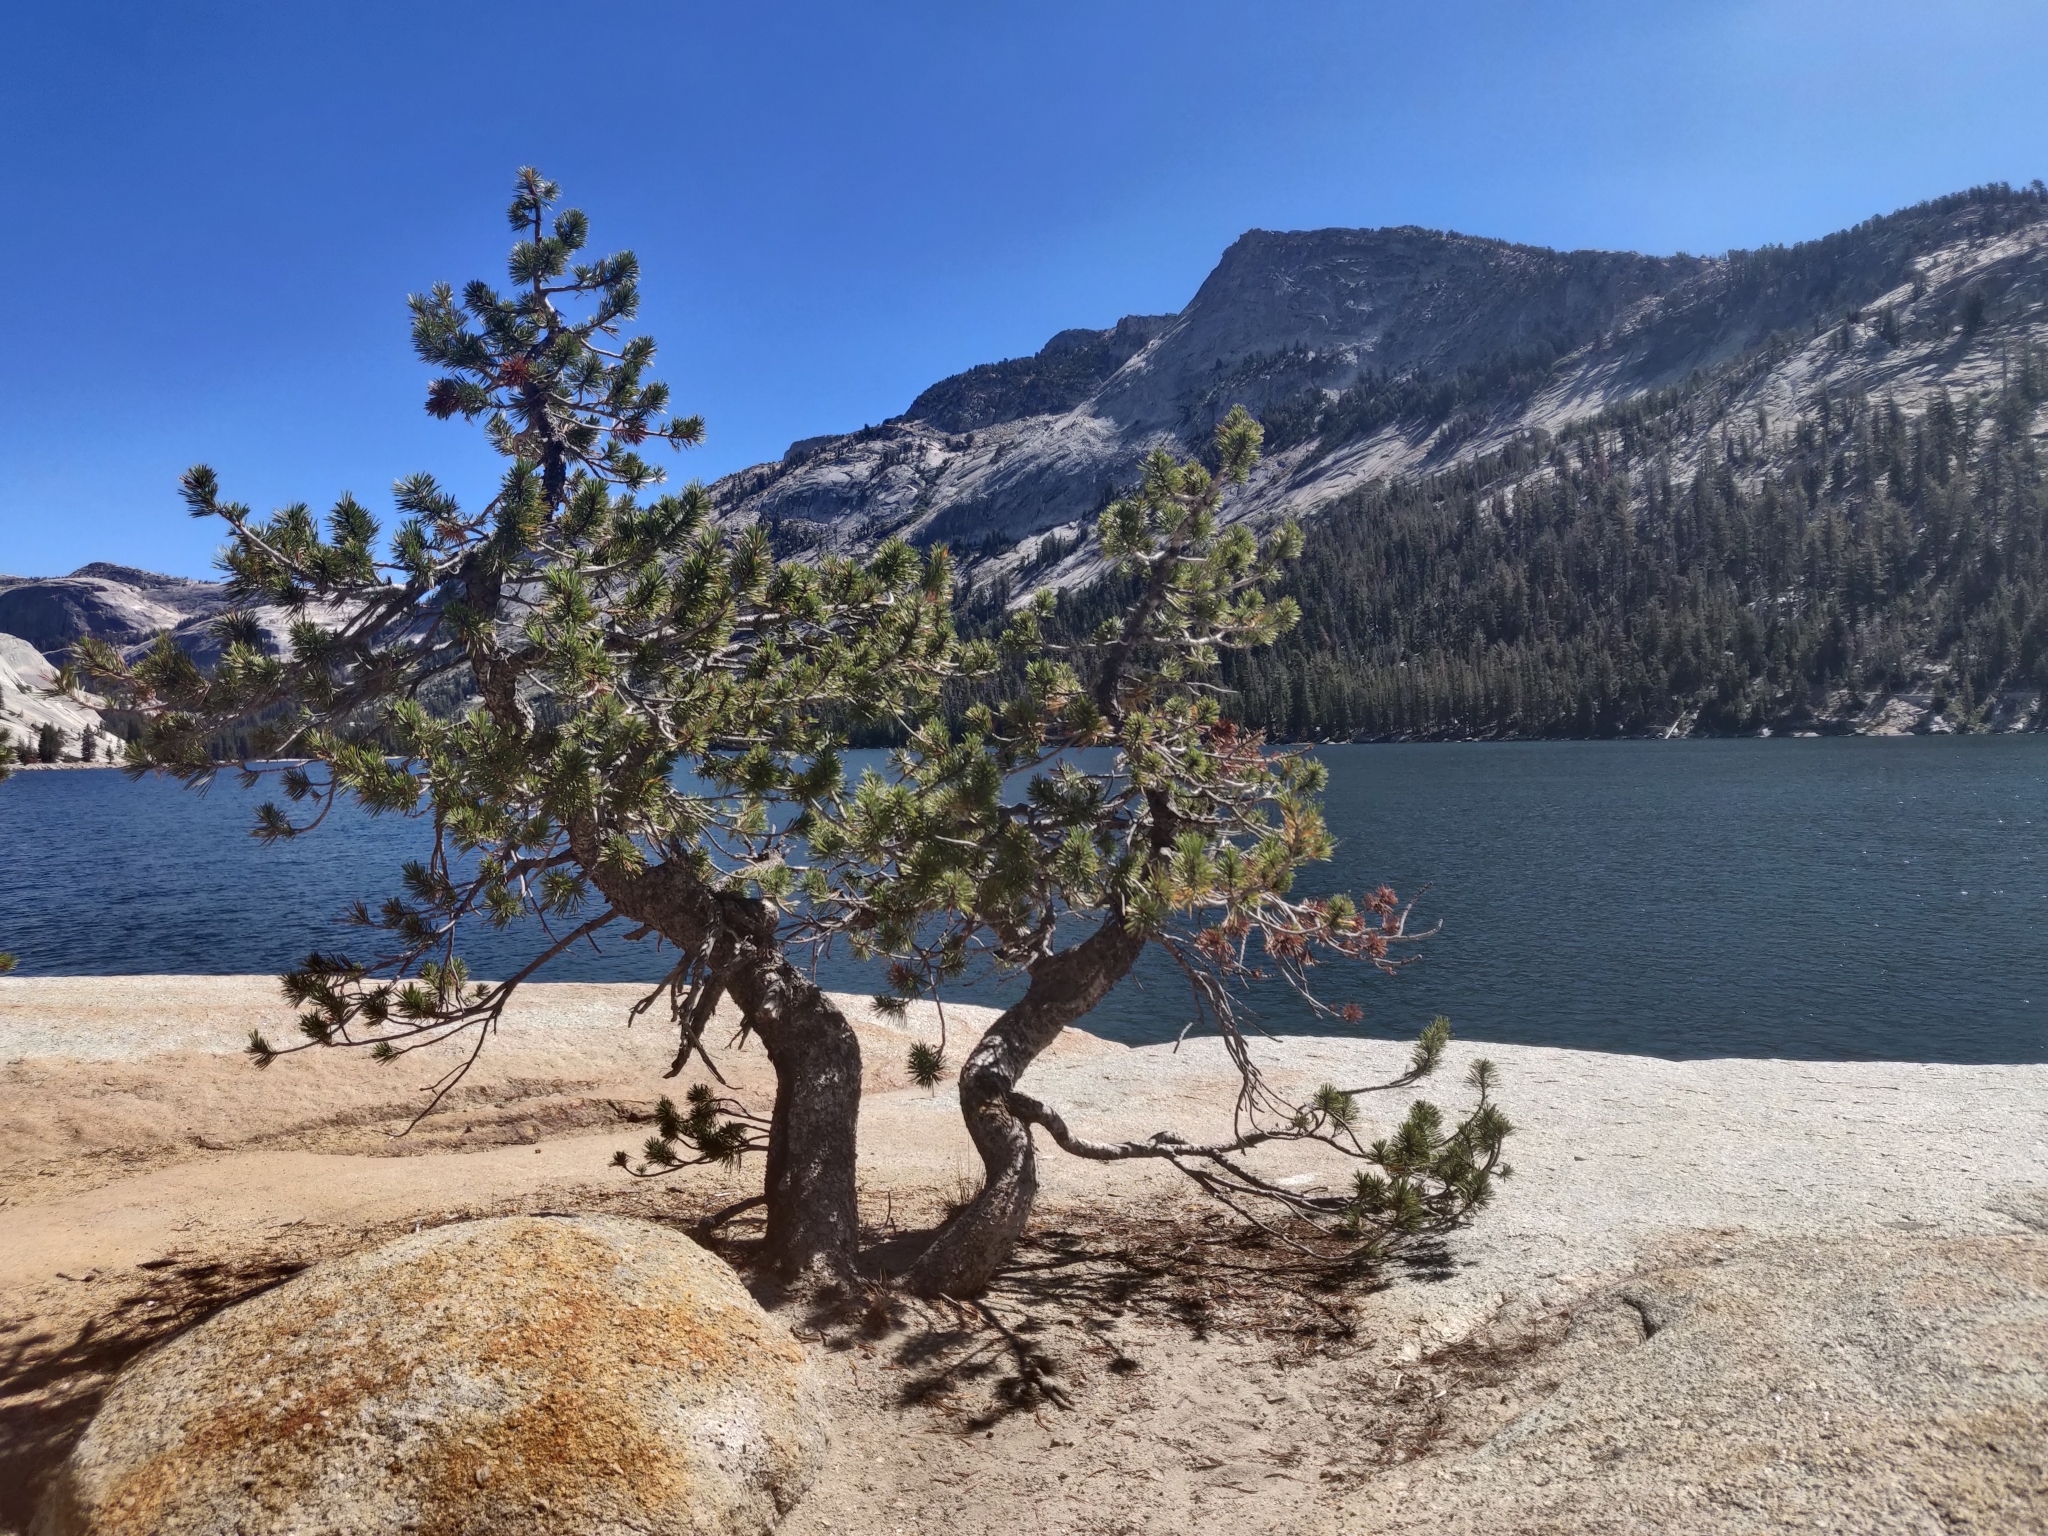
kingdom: Plantae
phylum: Tracheophyta
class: Pinopsida
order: Pinales
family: Pinaceae
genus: Pinus
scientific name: Pinus contorta
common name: Lodgepole pine
